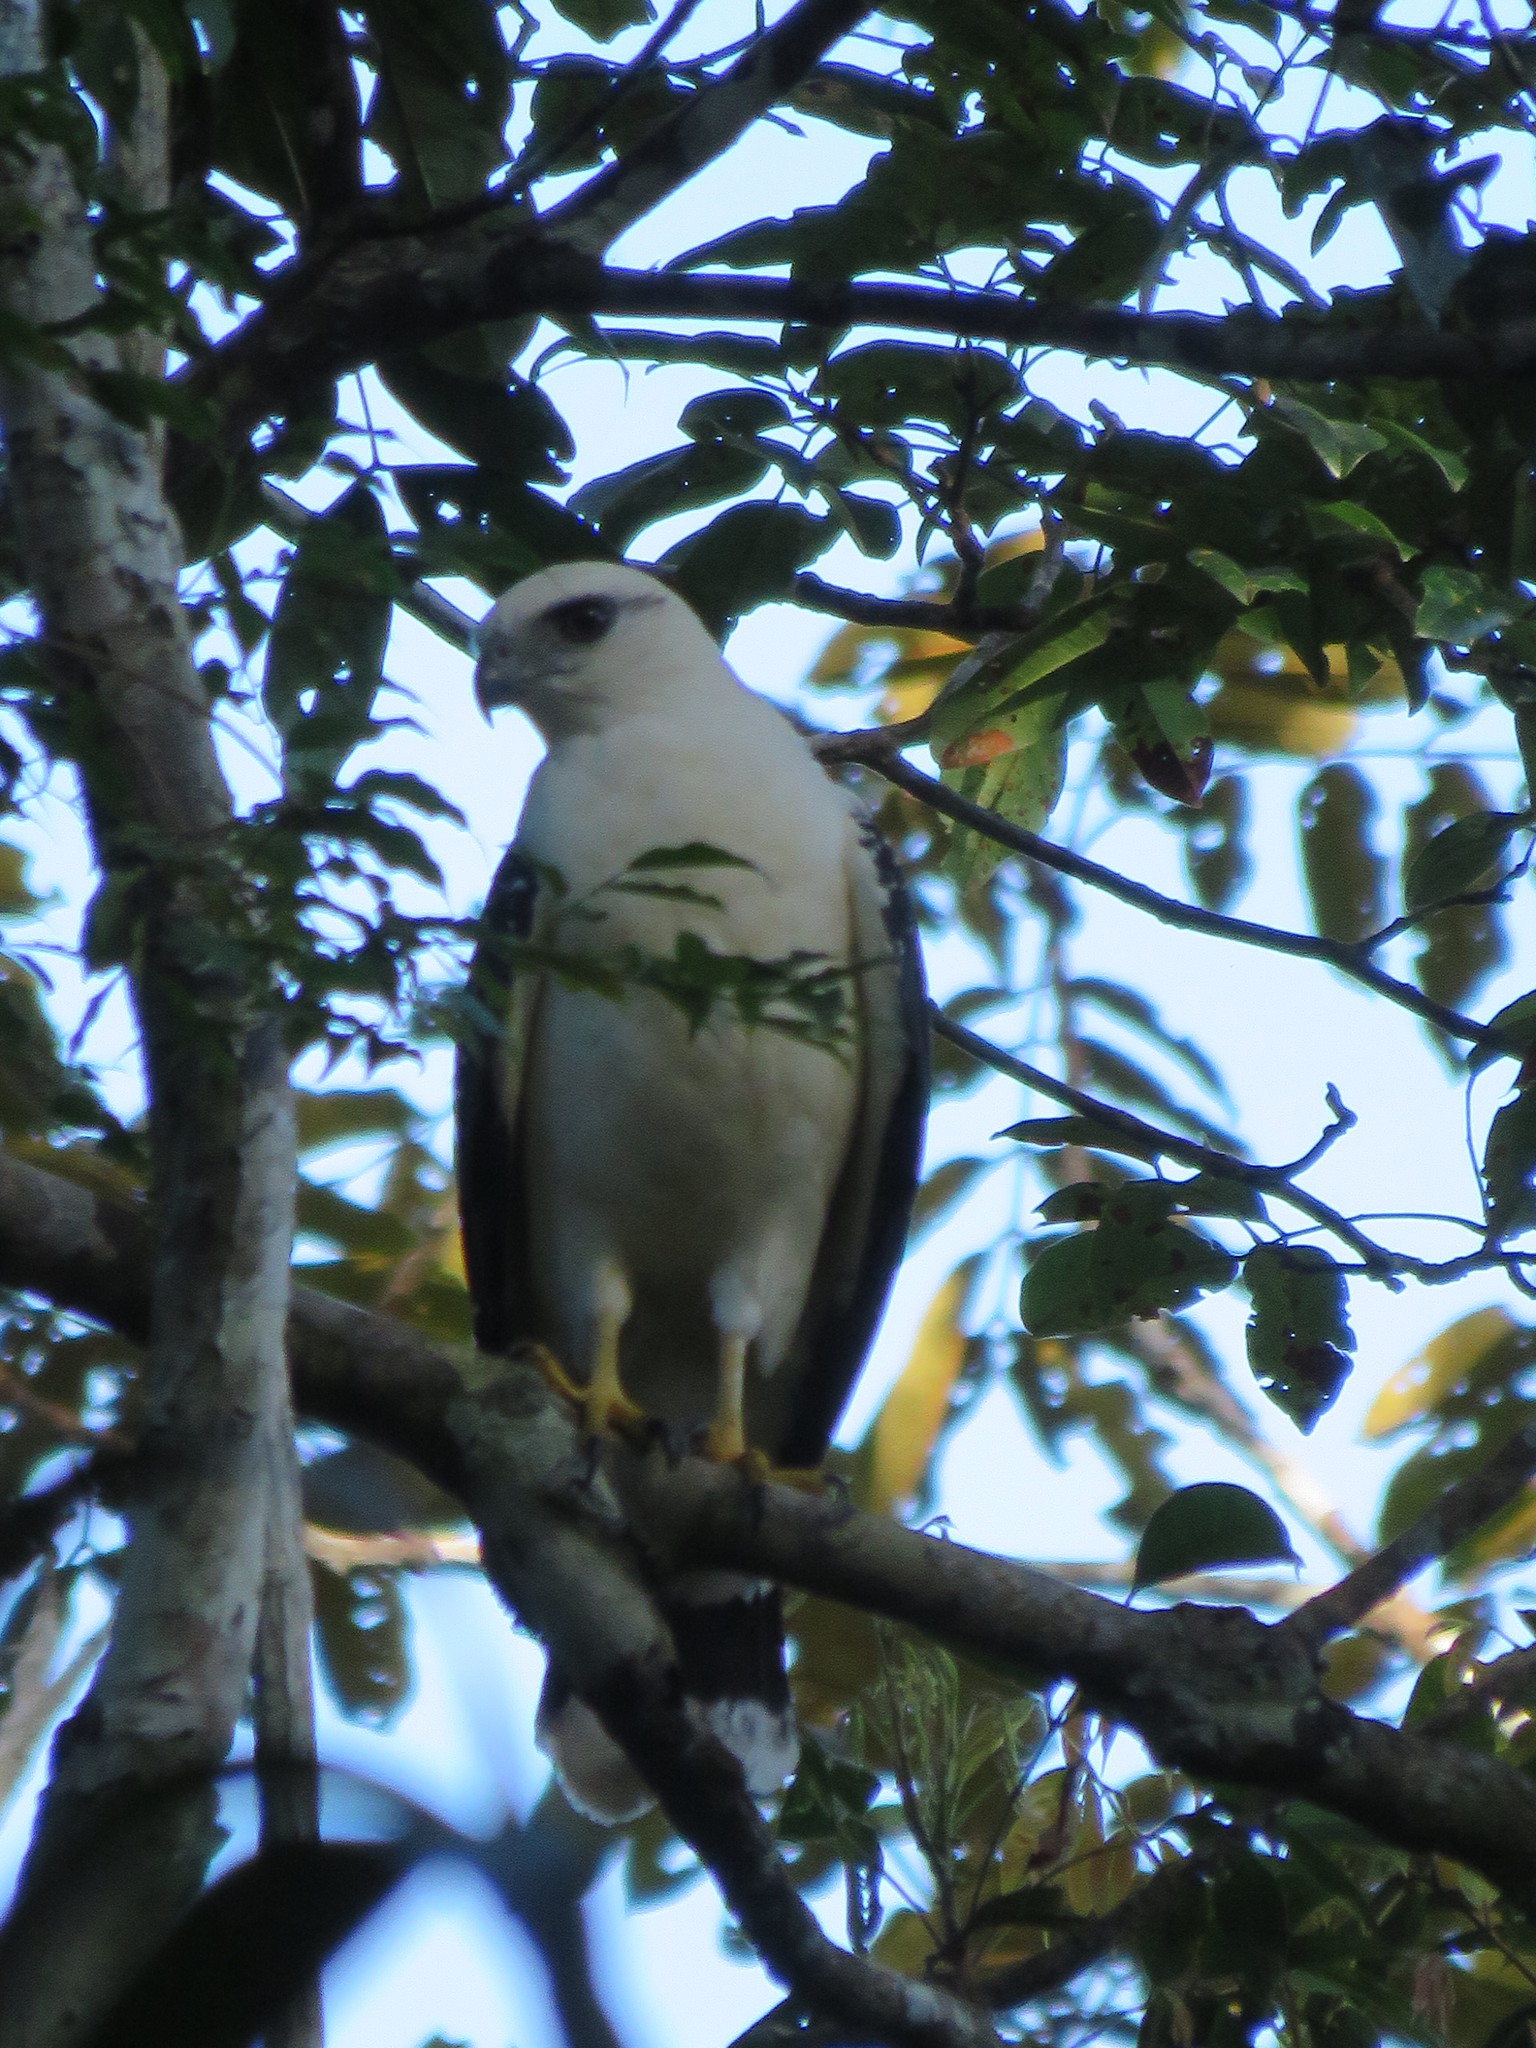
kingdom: Animalia
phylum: Chordata
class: Aves
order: Accipitriformes
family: Accipitridae
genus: Leucopternis
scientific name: Leucopternis albicollis
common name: White hawk
